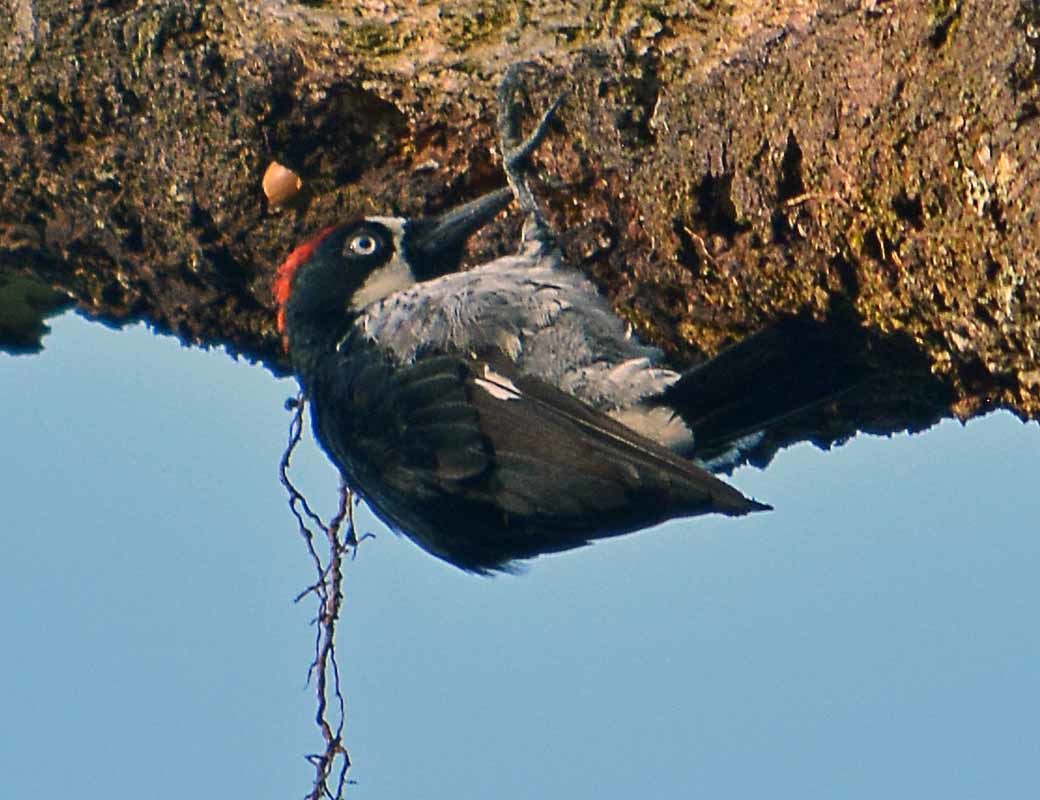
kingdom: Animalia
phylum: Chordata
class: Aves
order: Piciformes
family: Picidae
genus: Melanerpes
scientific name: Melanerpes formicivorus
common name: Acorn woodpecker
